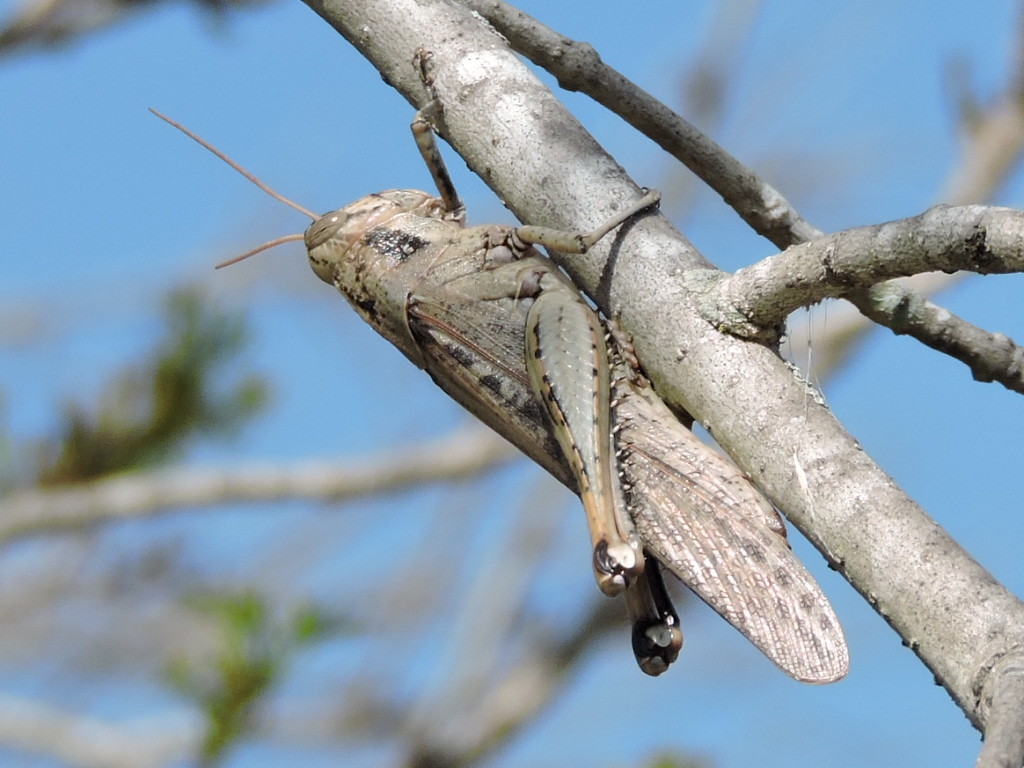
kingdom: Animalia
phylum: Arthropoda
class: Insecta
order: Orthoptera
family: Acrididae
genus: Schistocerca
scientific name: Schistocerca nitens
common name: Vagrant grasshopper
